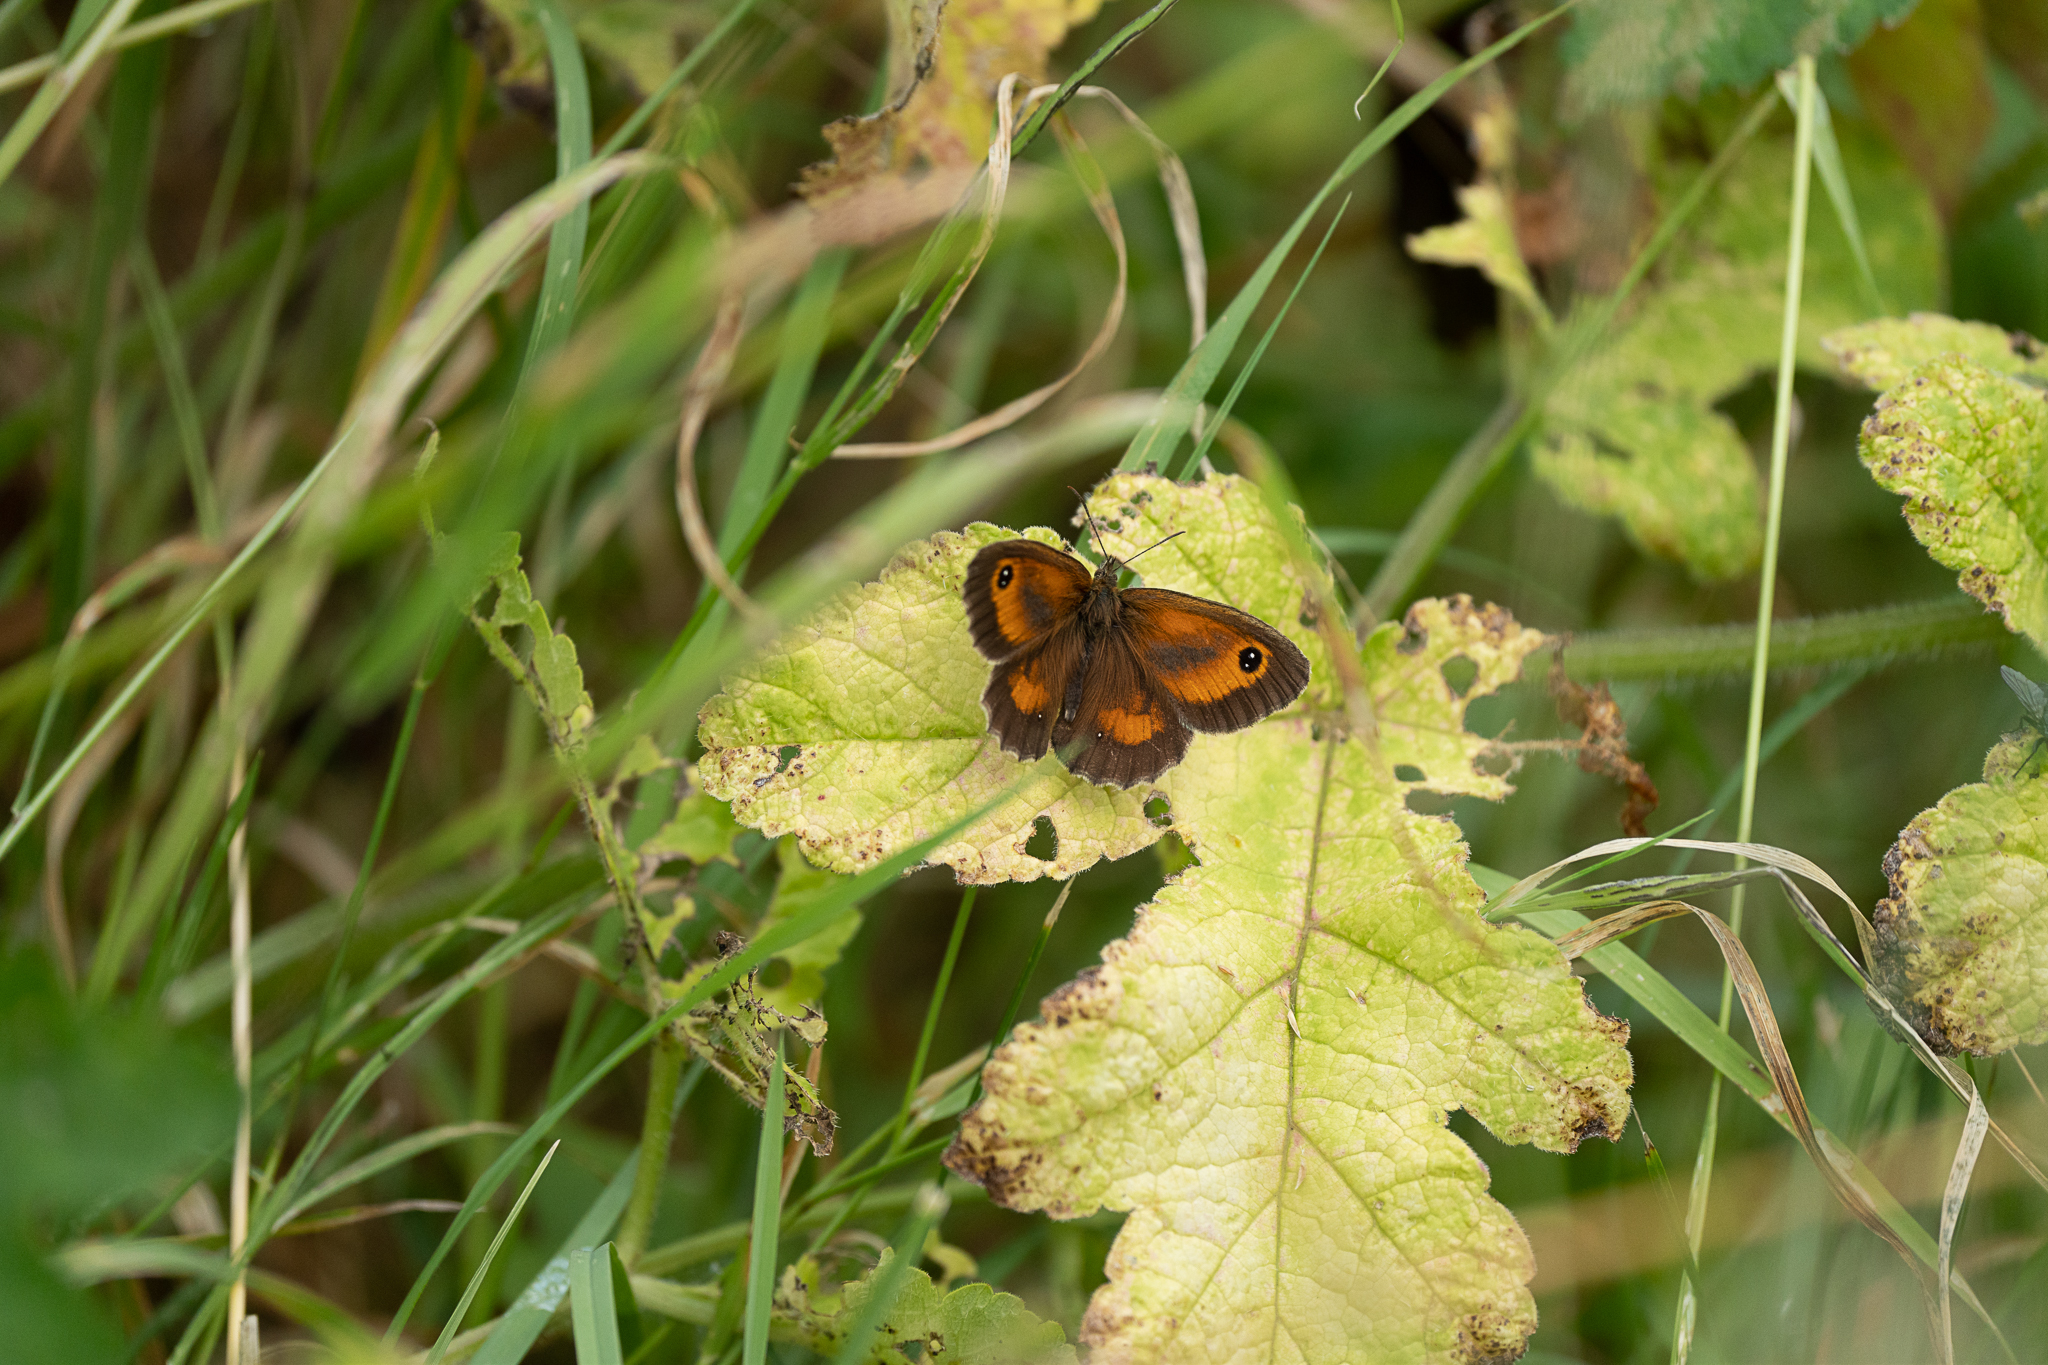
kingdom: Animalia
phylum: Arthropoda
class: Insecta
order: Lepidoptera
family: Nymphalidae
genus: Pyronia
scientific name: Pyronia tithonus
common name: Gatekeeper
